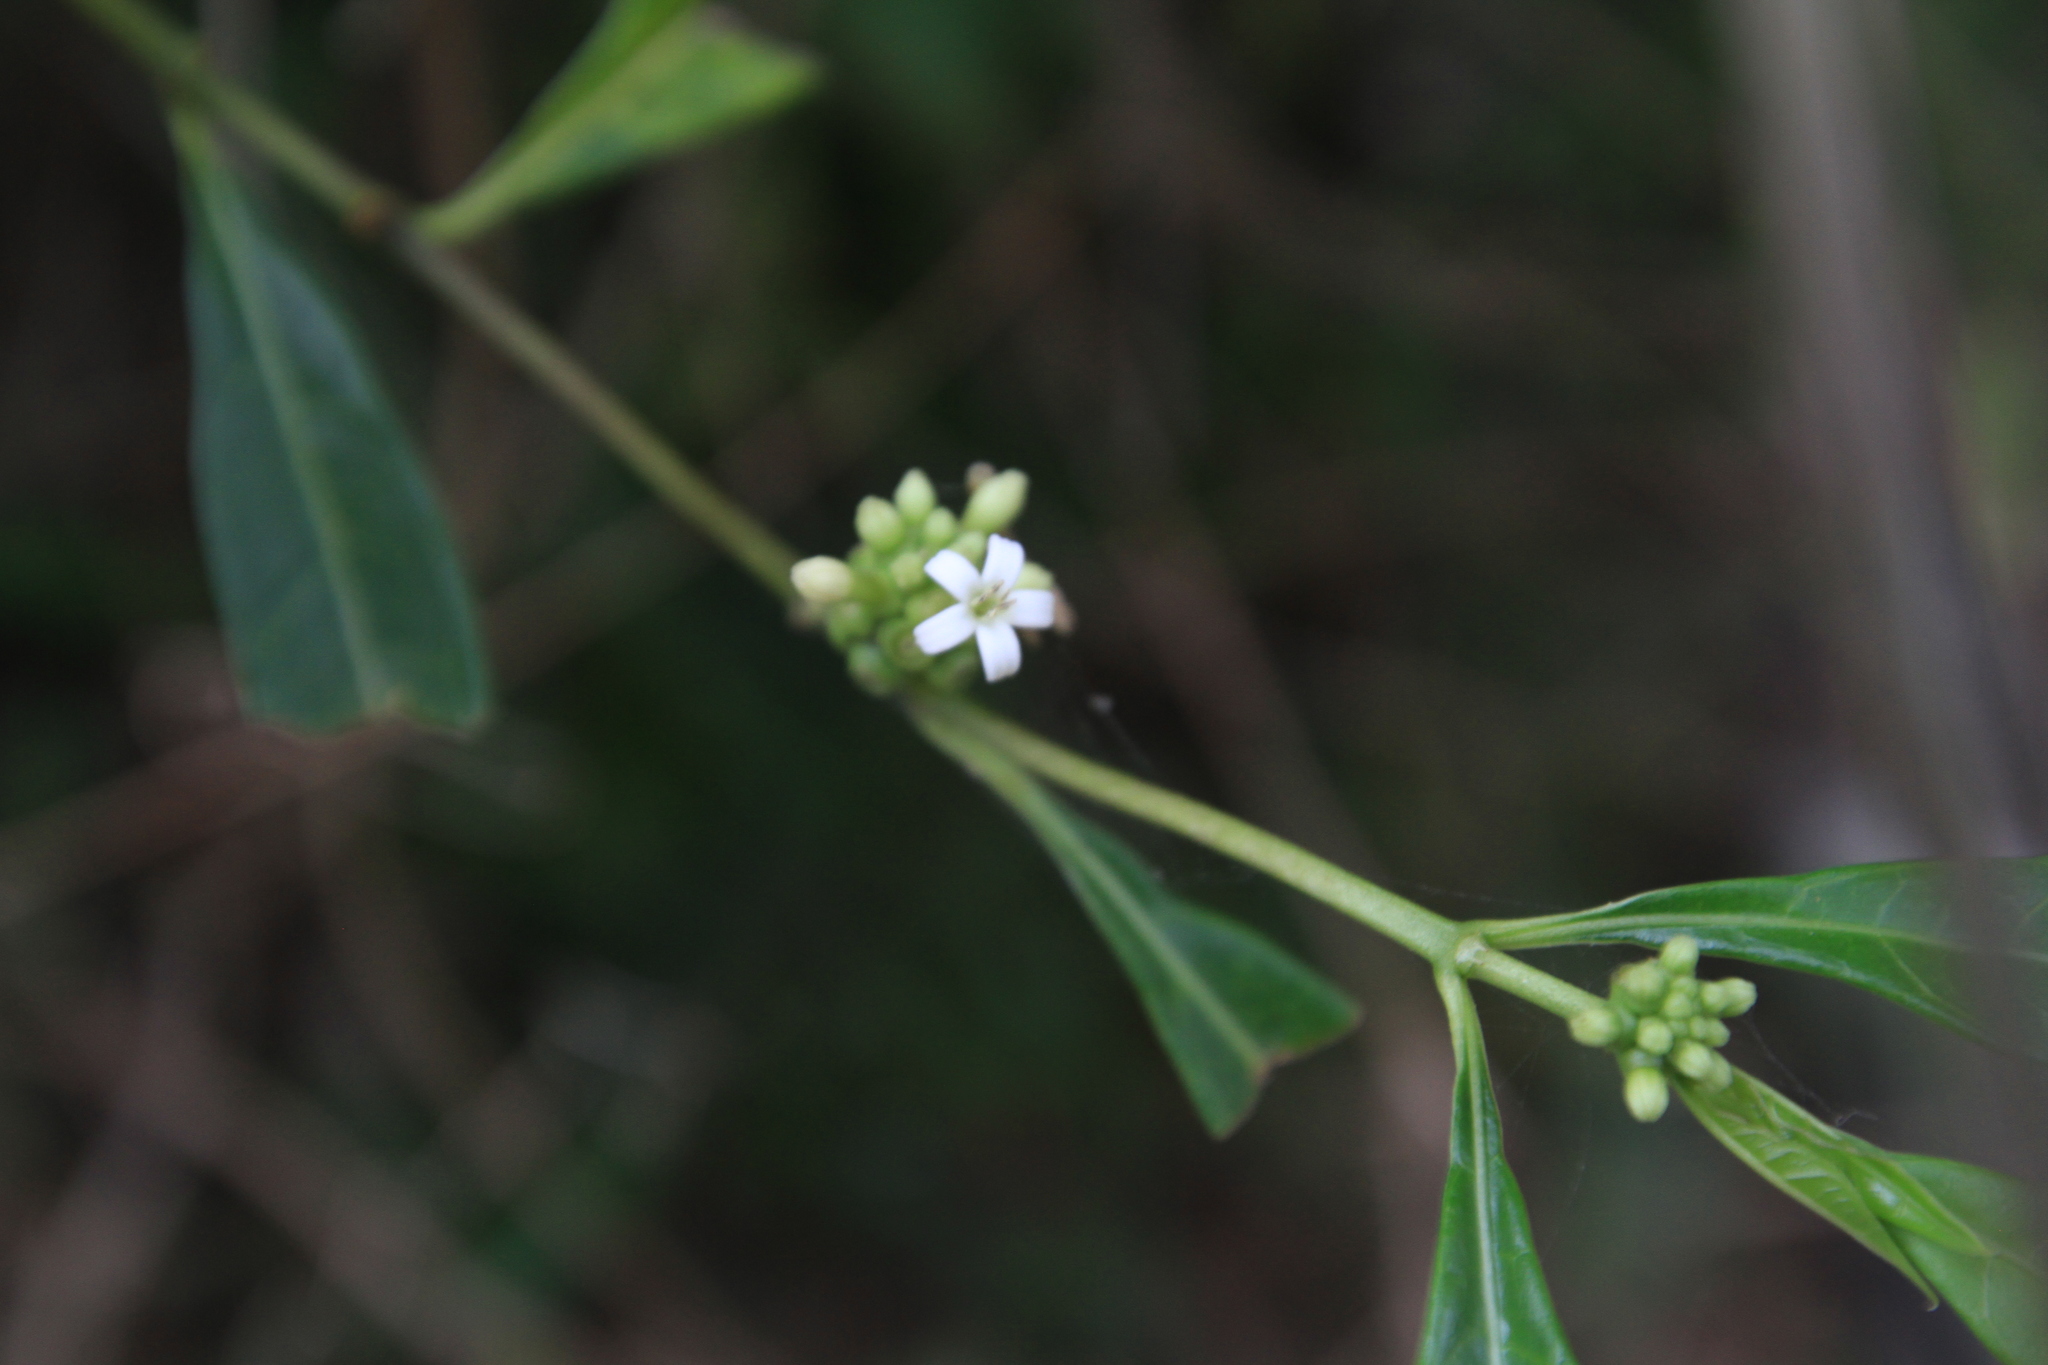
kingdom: Plantae
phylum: Tracheophyta
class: Magnoliopsida
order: Gentianales
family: Rubiaceae
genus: Morinda
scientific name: Morinda royoc
